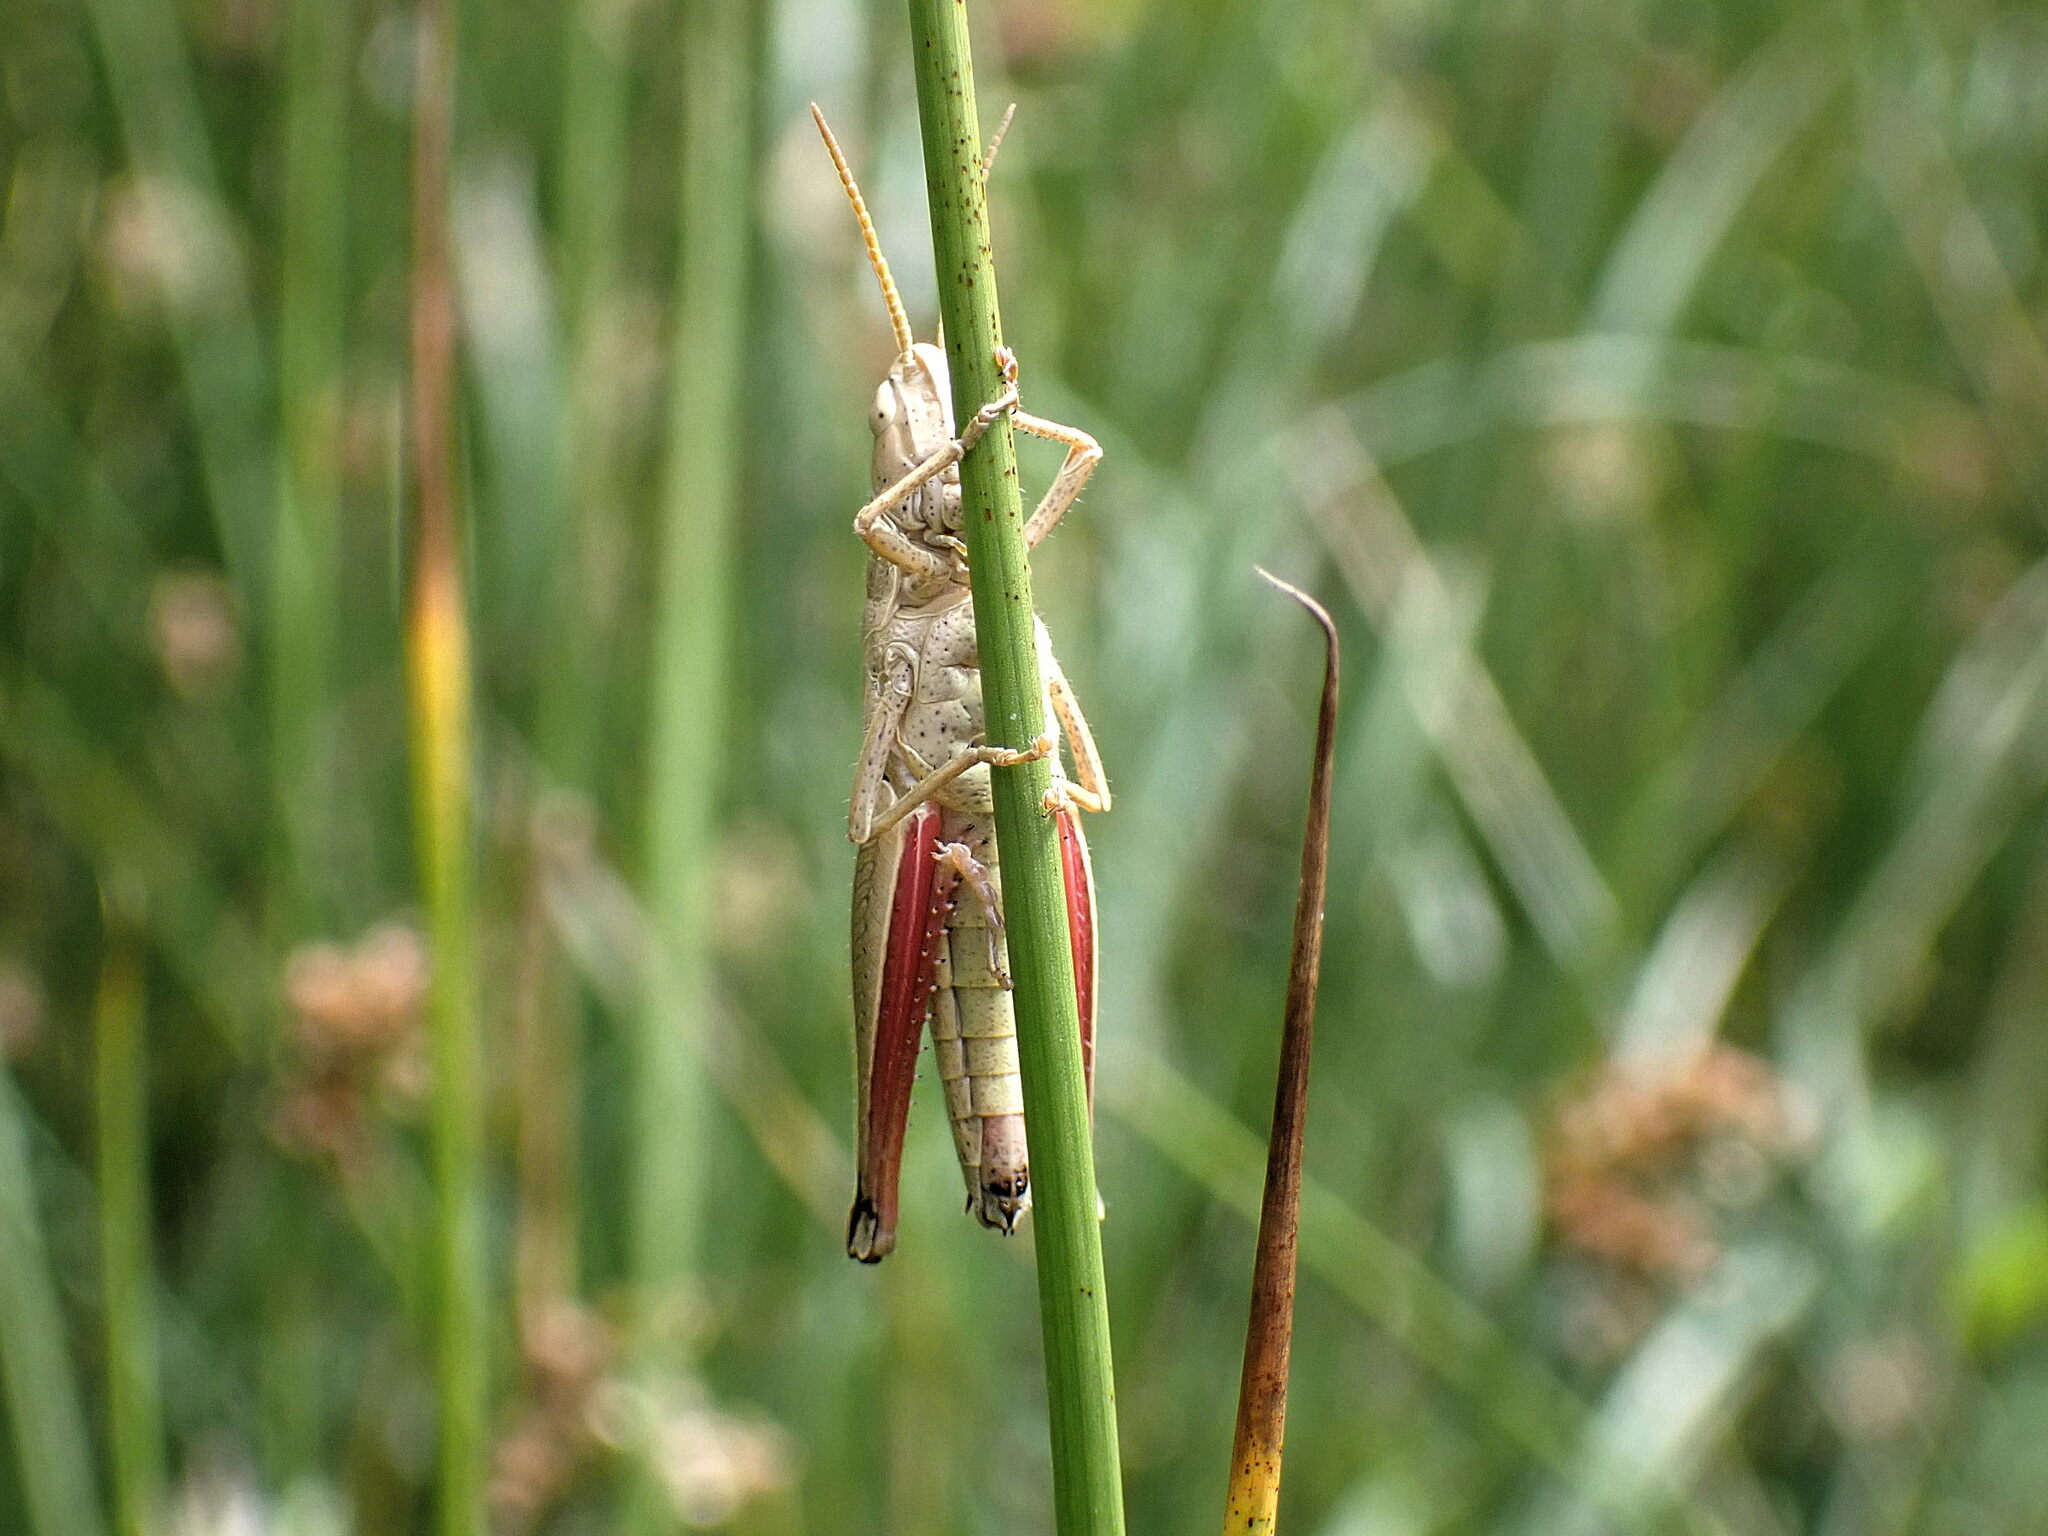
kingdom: Animalia
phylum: Arthropoda
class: Insecta
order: Orthoptera
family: Acrididae
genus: Chrysochraon
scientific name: Chrysochraon dispar
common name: Large gold grasshopper
